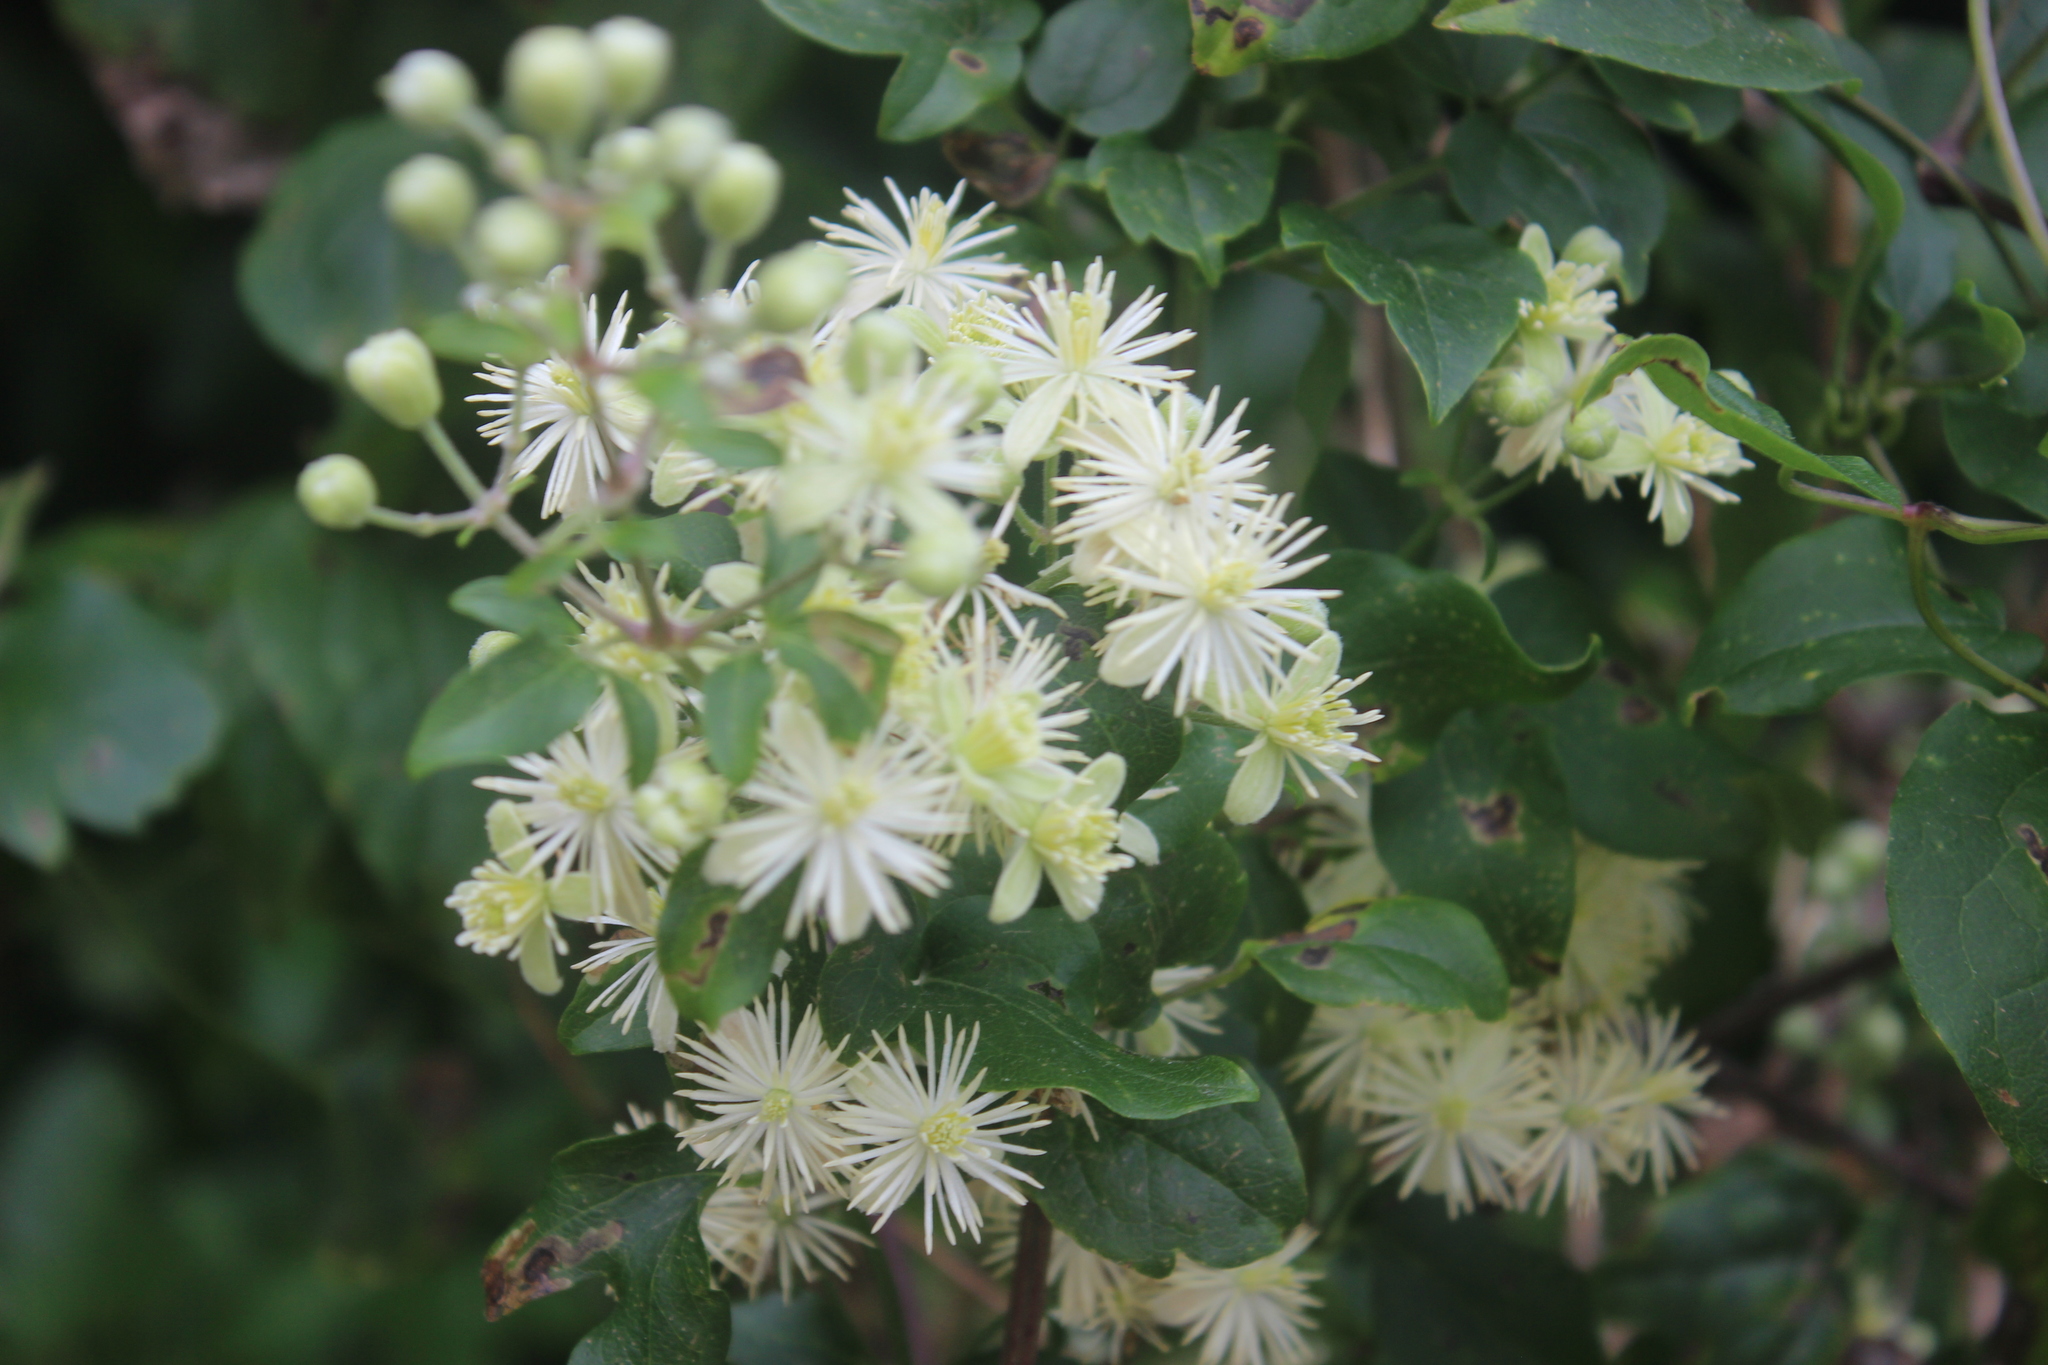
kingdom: Plantae
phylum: Tracheophyta
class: Magnoliopsida
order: Ranunculales
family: Ranunculaceae
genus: Clematis
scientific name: Clematis vitalba
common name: Evergreen clematis
